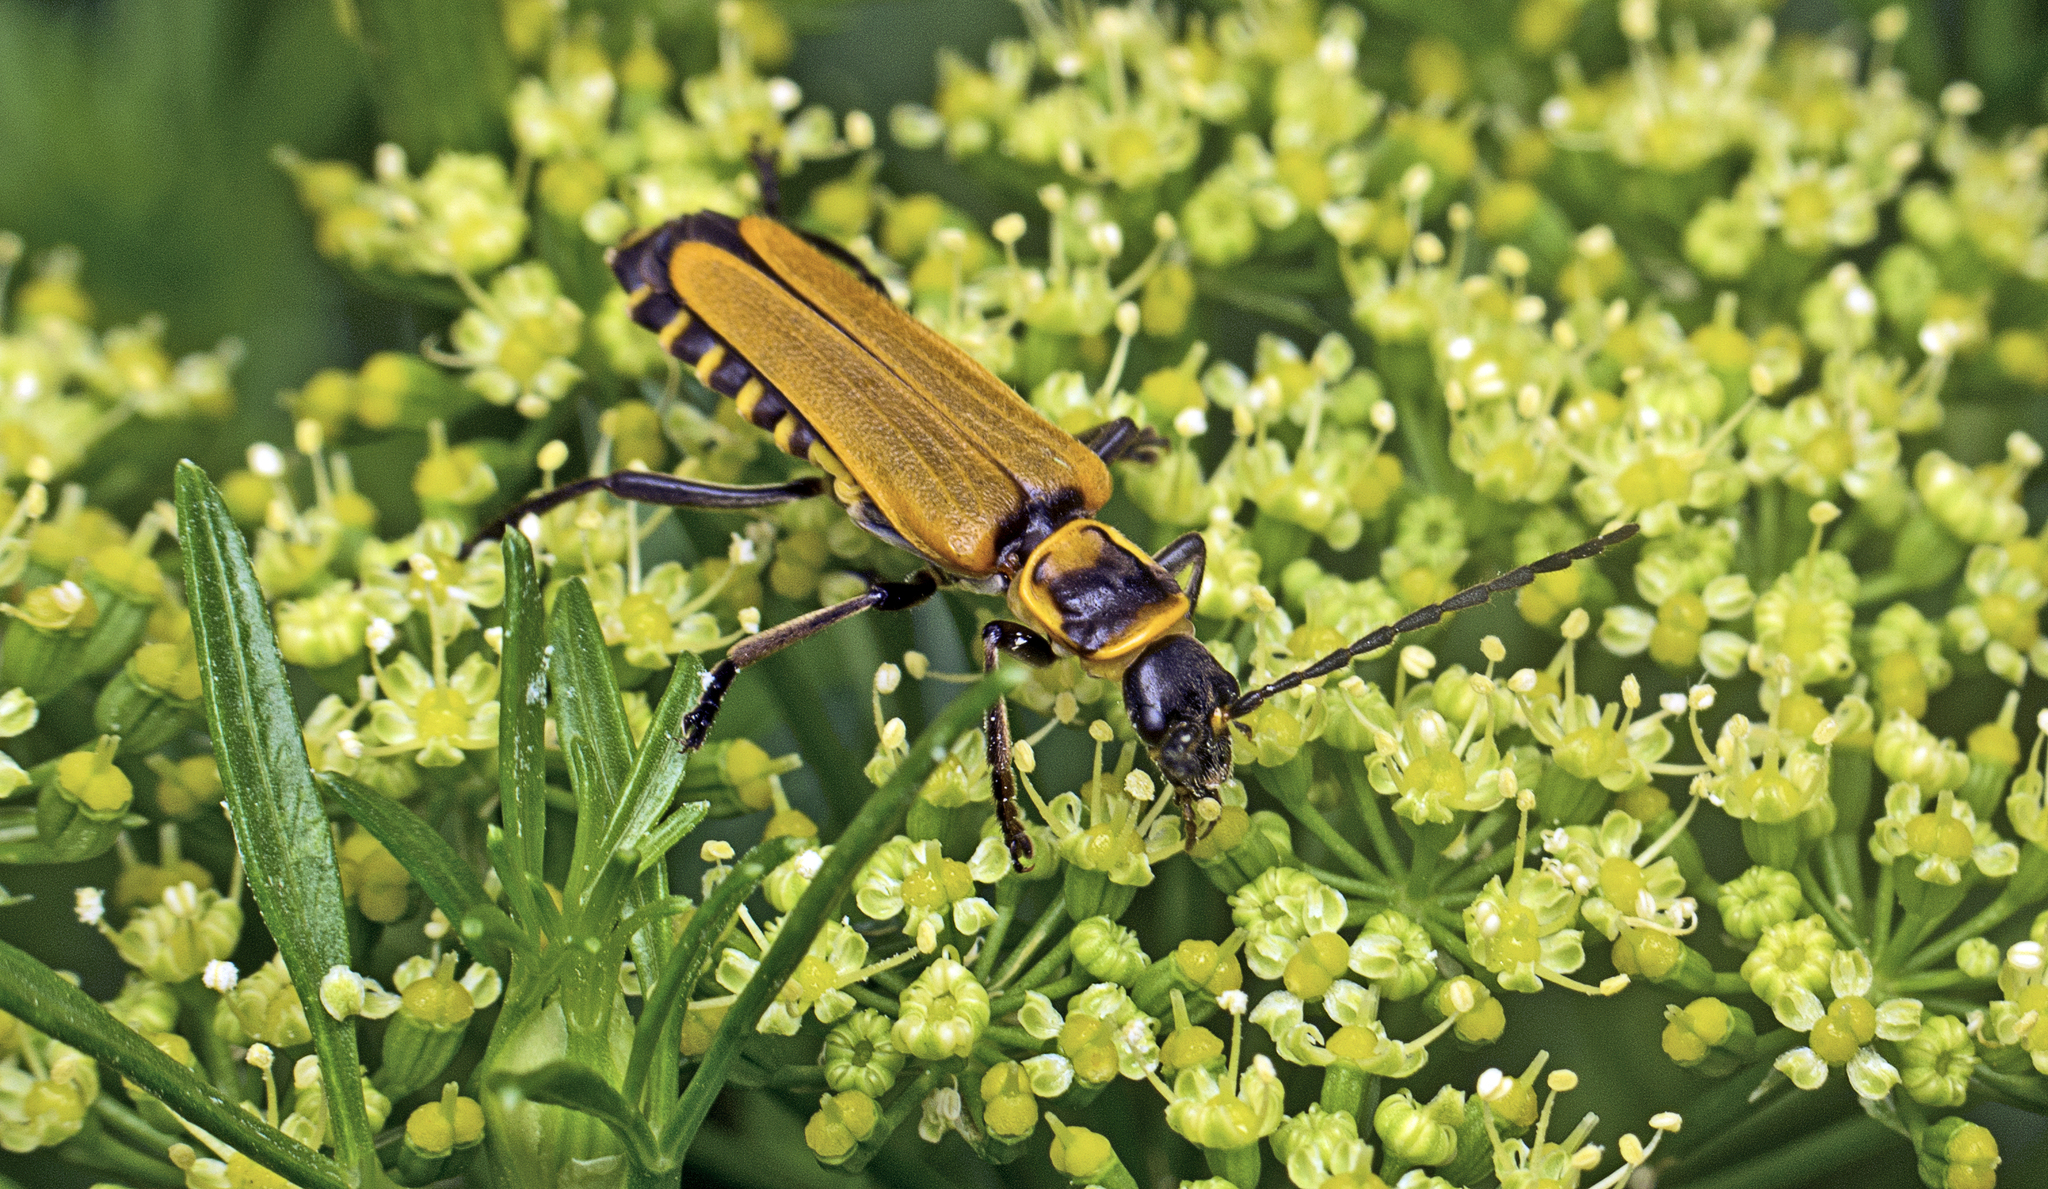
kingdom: Animalia
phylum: Arthropoda
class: Insecta
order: Coleoptera
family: Cantharidae
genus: Chauliognathus
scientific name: Chauliognathus
